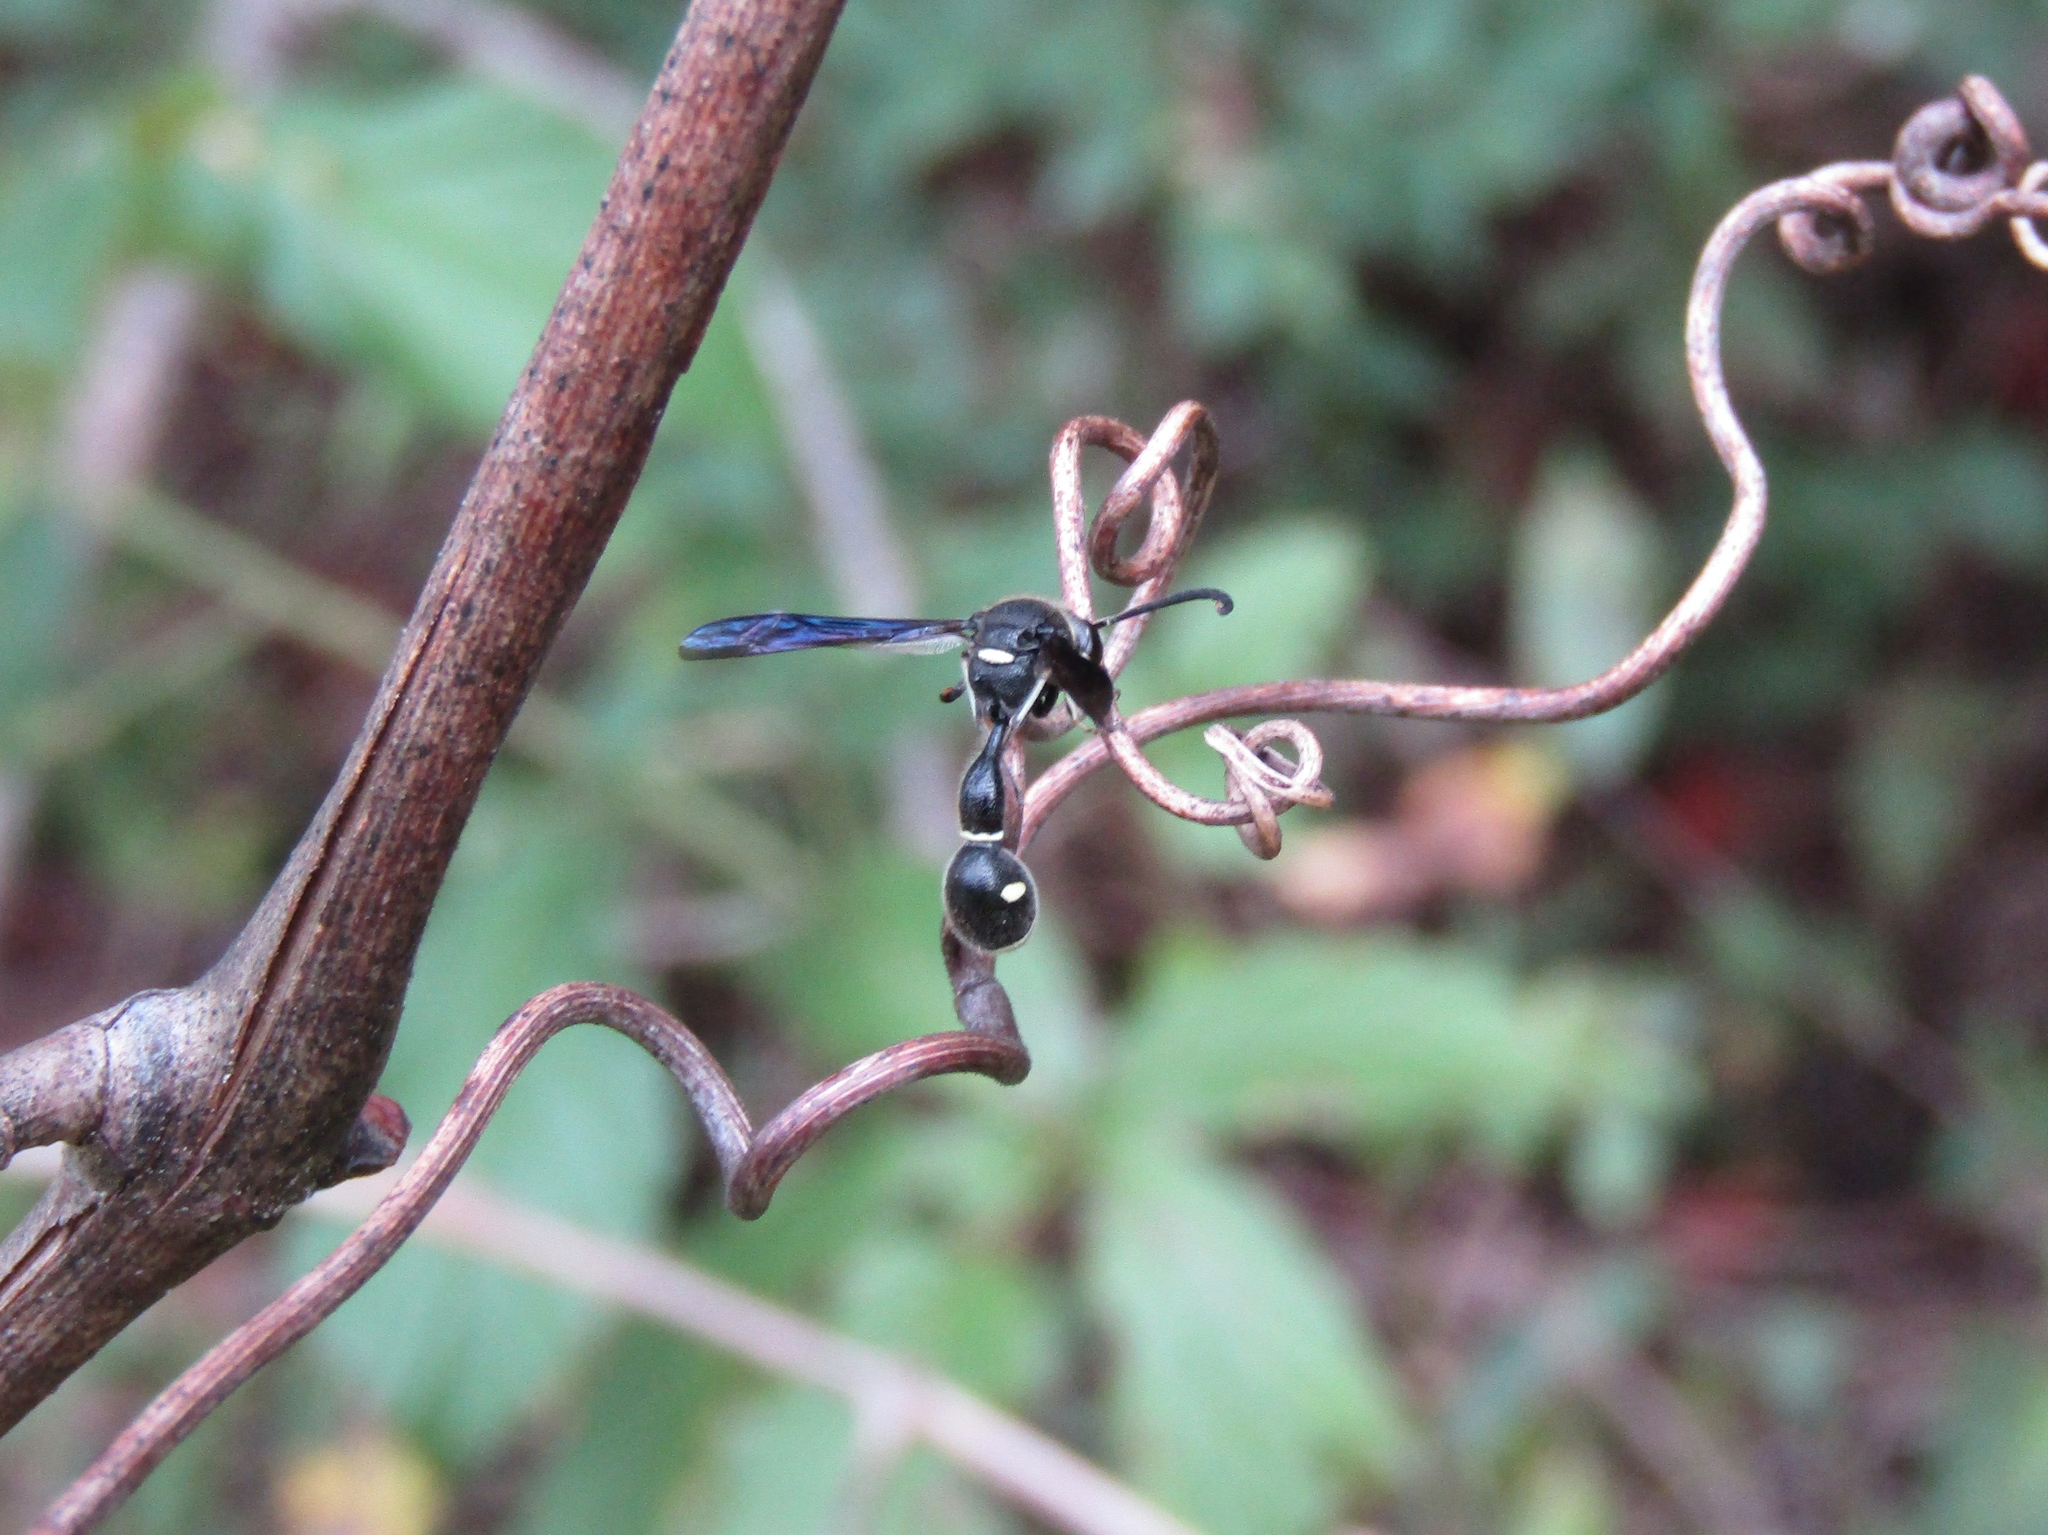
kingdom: Animalia
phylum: Arthropoda
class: Insecta
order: Hymenoptera
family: Vespidae
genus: Eumenes
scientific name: Eumenes fraternus
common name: Fraternal potter wasp
